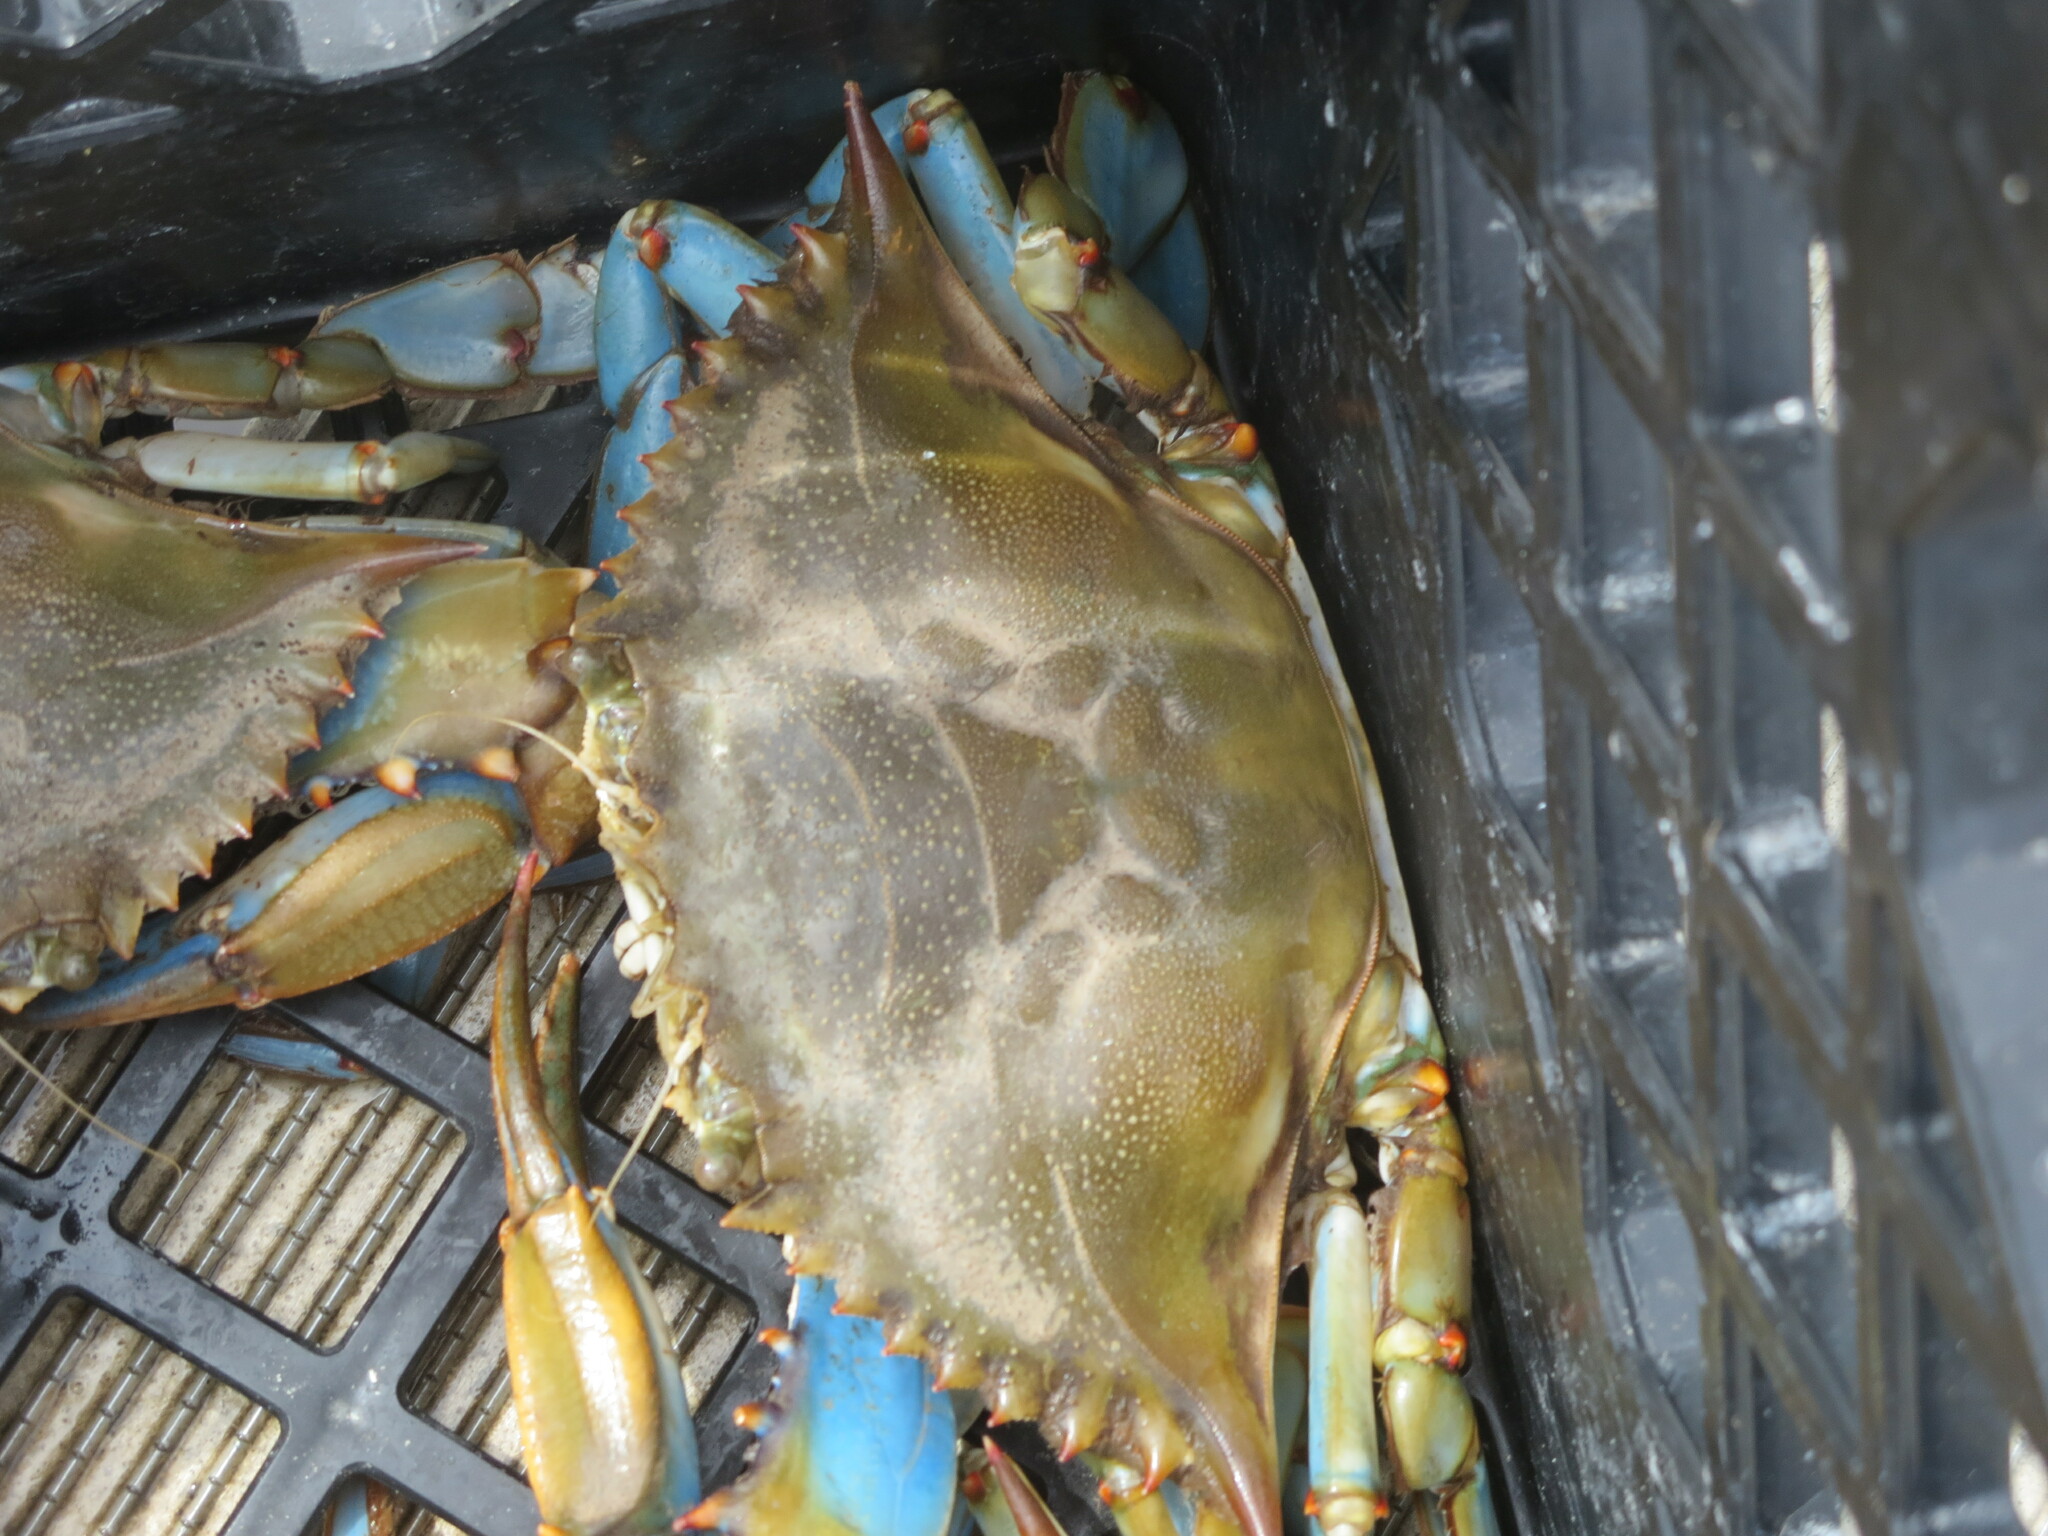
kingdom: Animalia
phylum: Arthropoda
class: Malacostraca
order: Decapoda
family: Portunidae
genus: Callinectes
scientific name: Callinectes sapidus
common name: Blue crab
